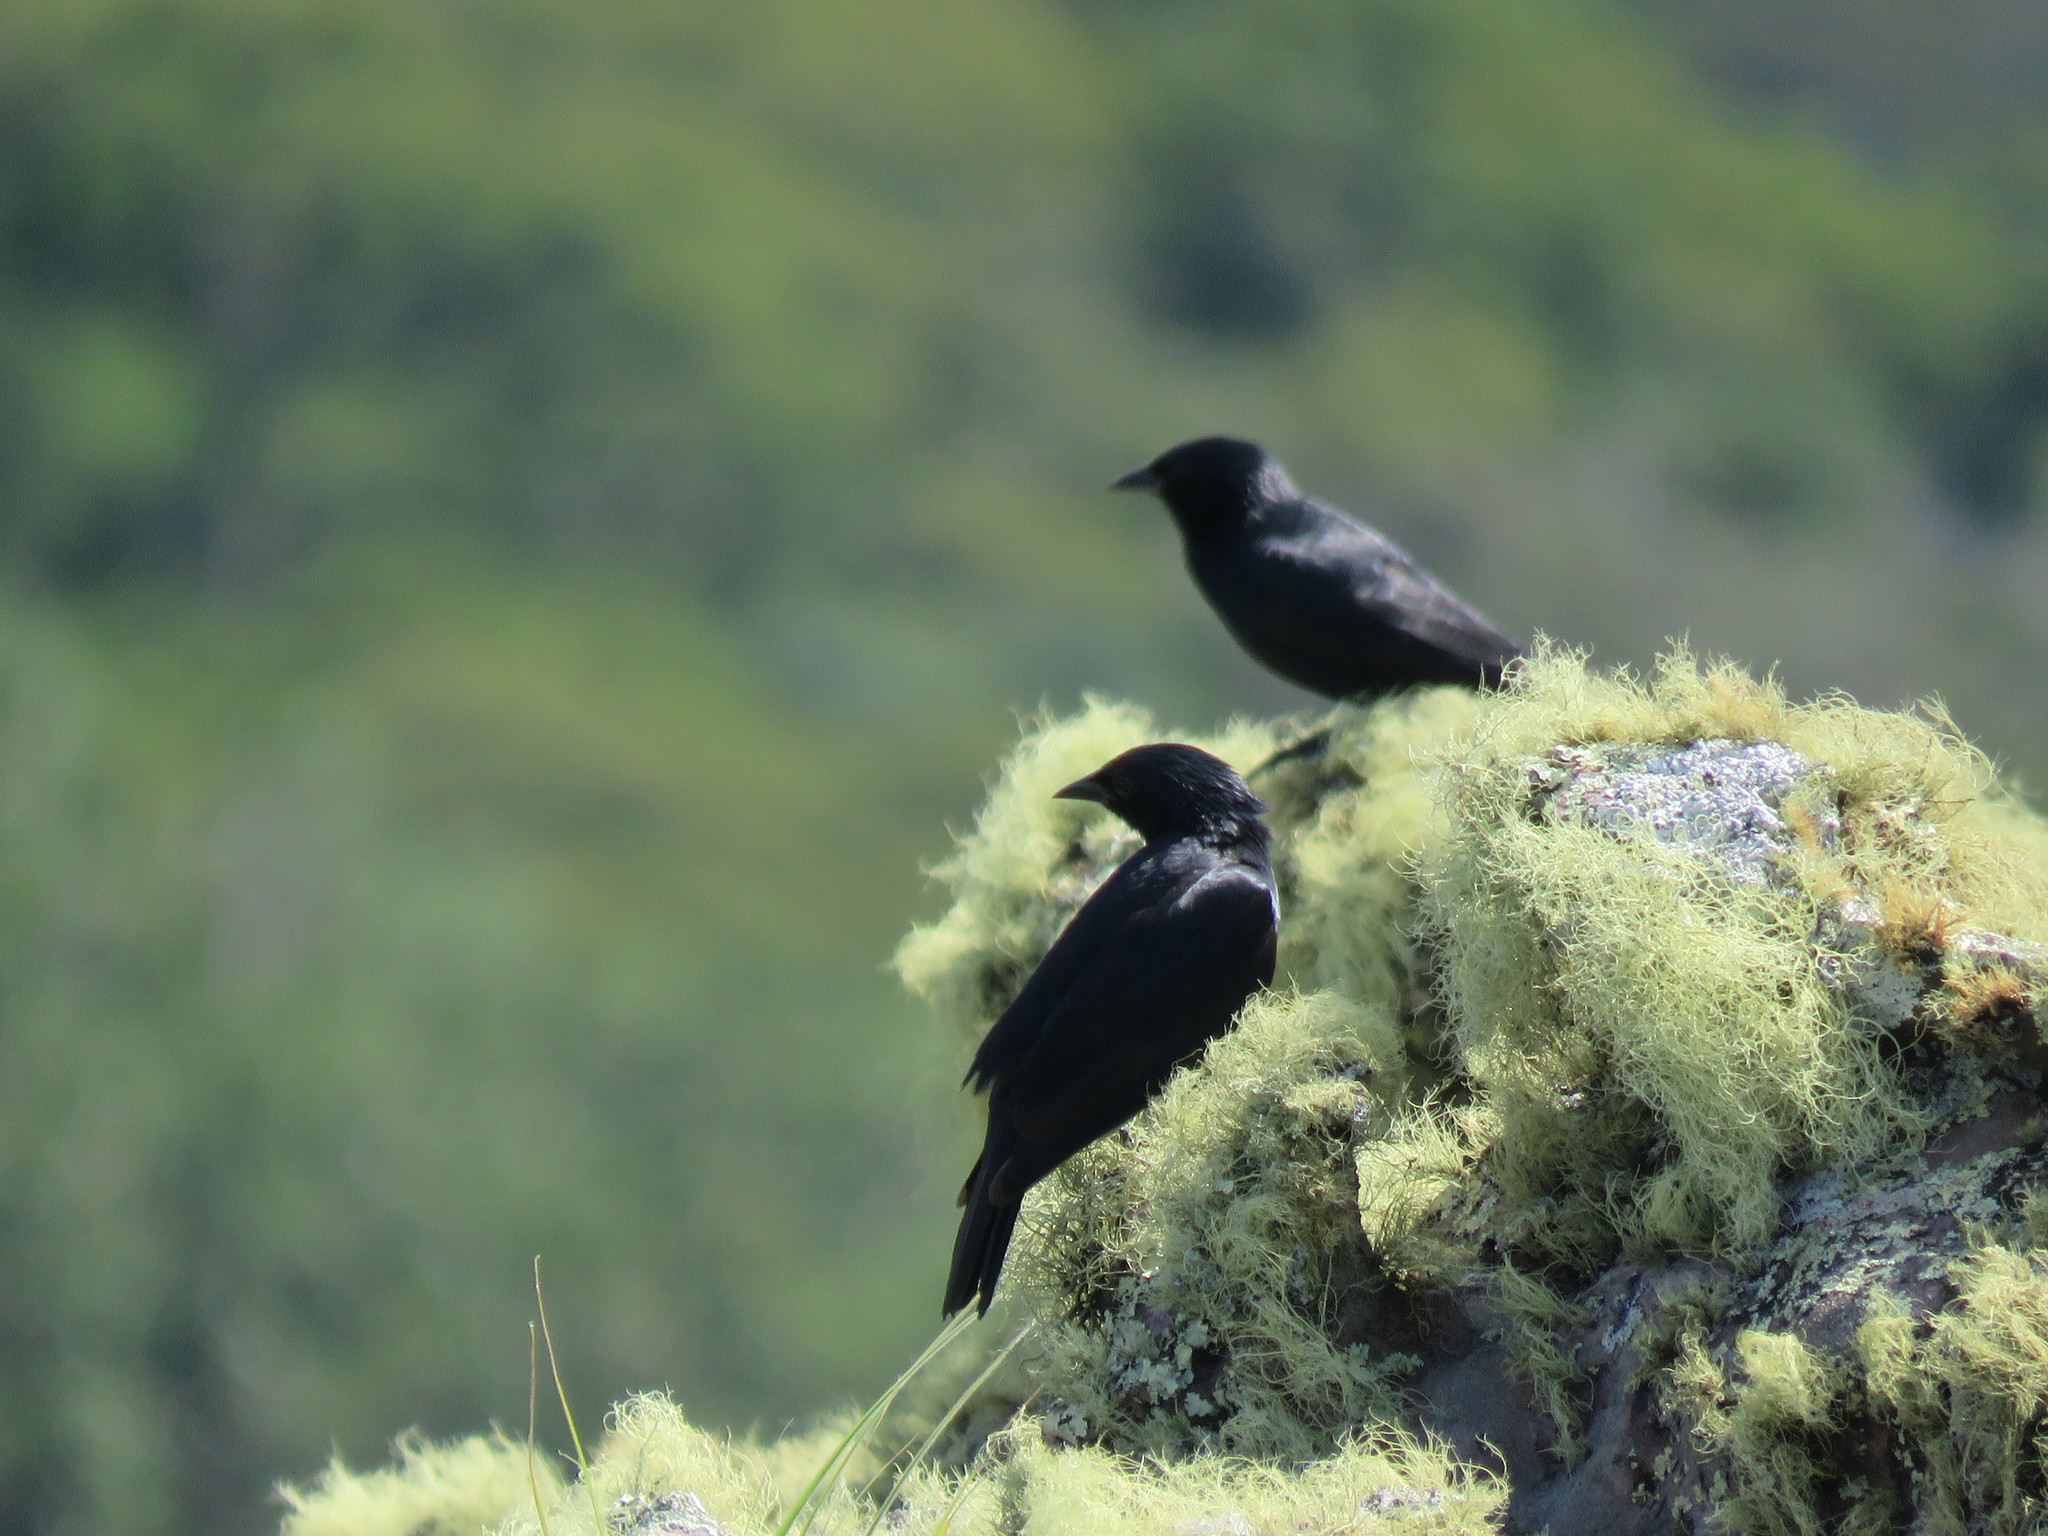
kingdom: Animalia
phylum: Chordata
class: Aves
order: Passeriformes
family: Icteridae
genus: Molothrus
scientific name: Molothrus bonariensis
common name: Shiny cowbird
